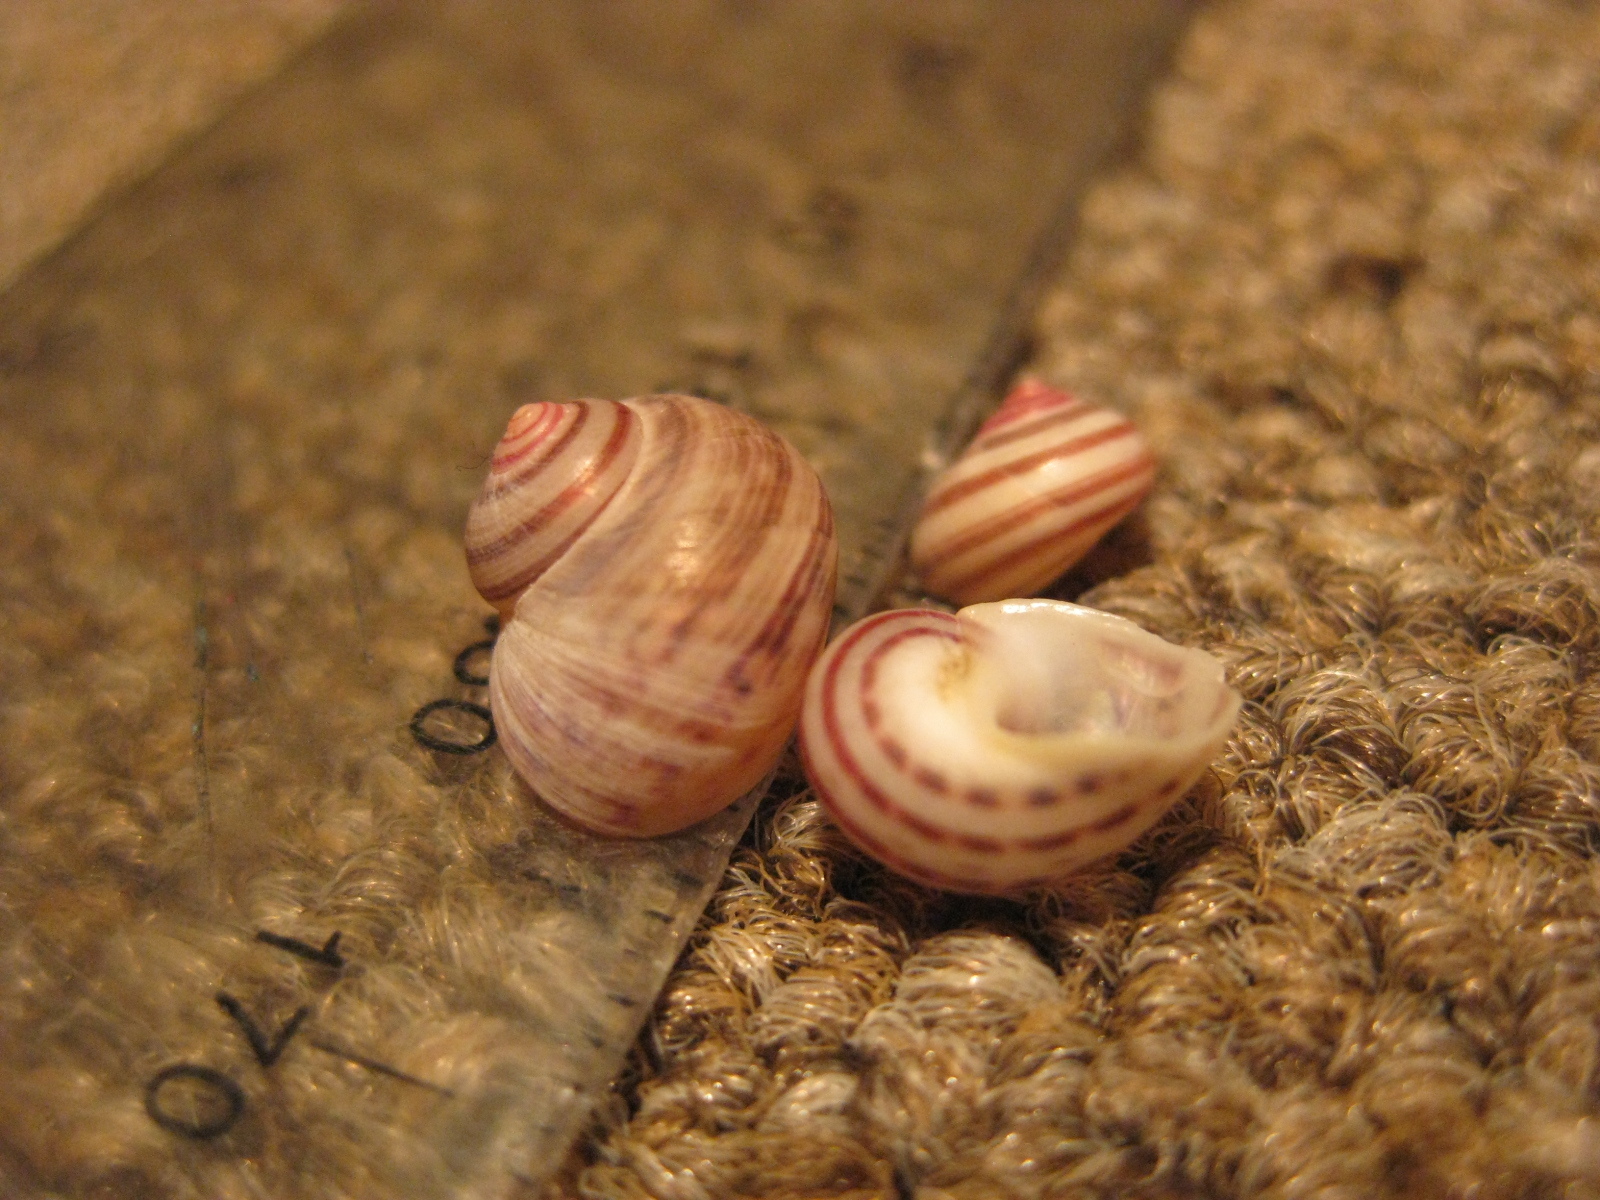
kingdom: Animalia
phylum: Mollusca
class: Gastropoda
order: Trochida
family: Trochidae
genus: Cantharidus
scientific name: Cantharidus antipodum
